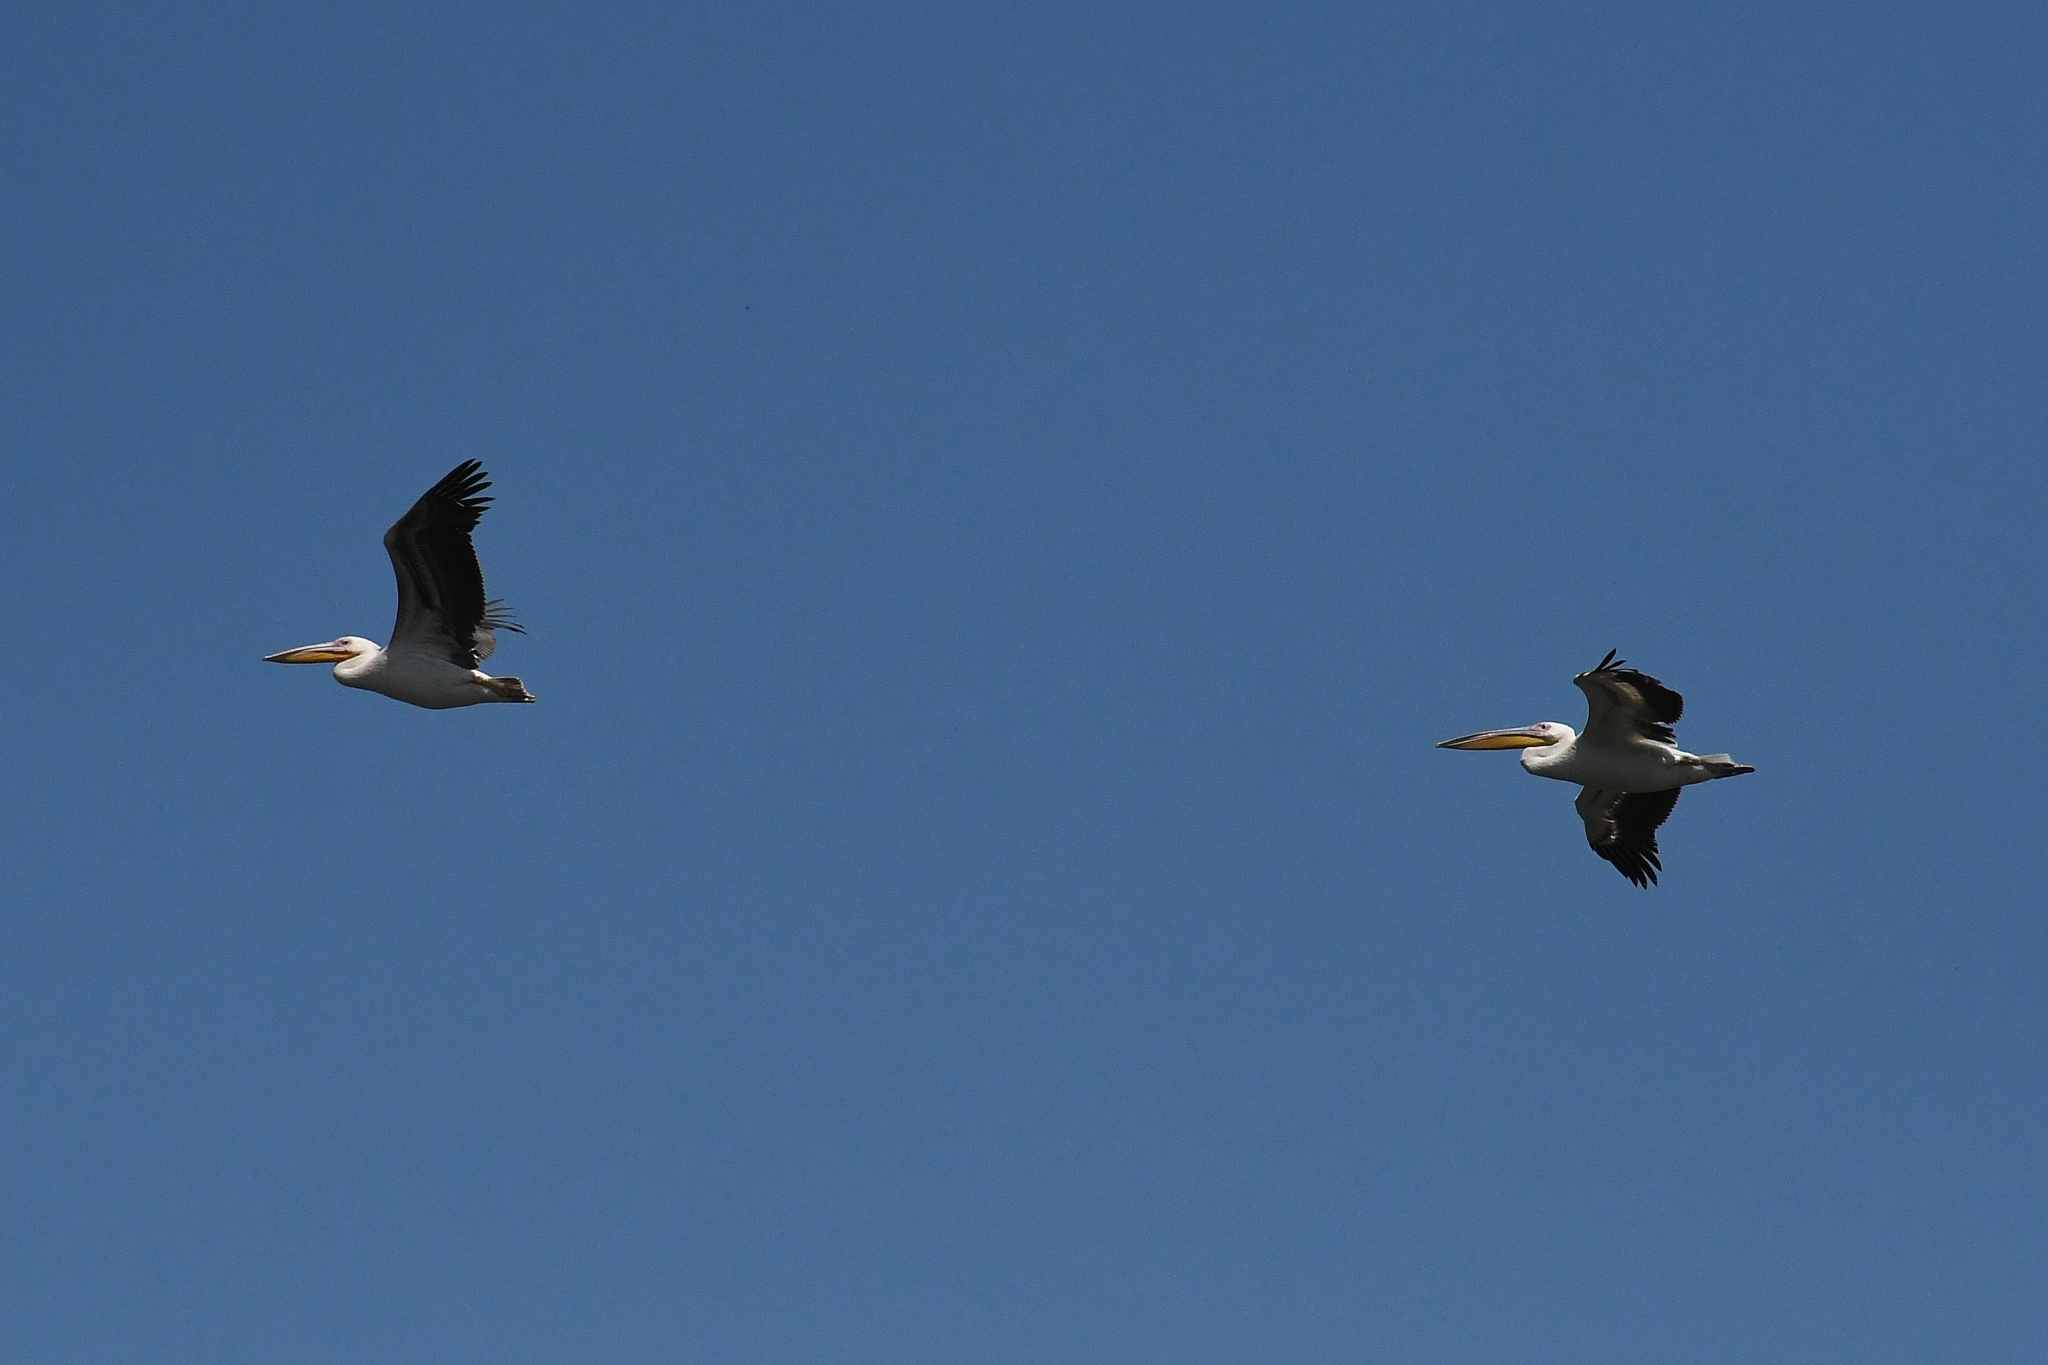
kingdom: Animalia
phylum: Chordata
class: Aves
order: Pelecaniformes
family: Pelecanidae
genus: Pelecanus
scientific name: Pelecanus onocrotalus
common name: Great white pelican
